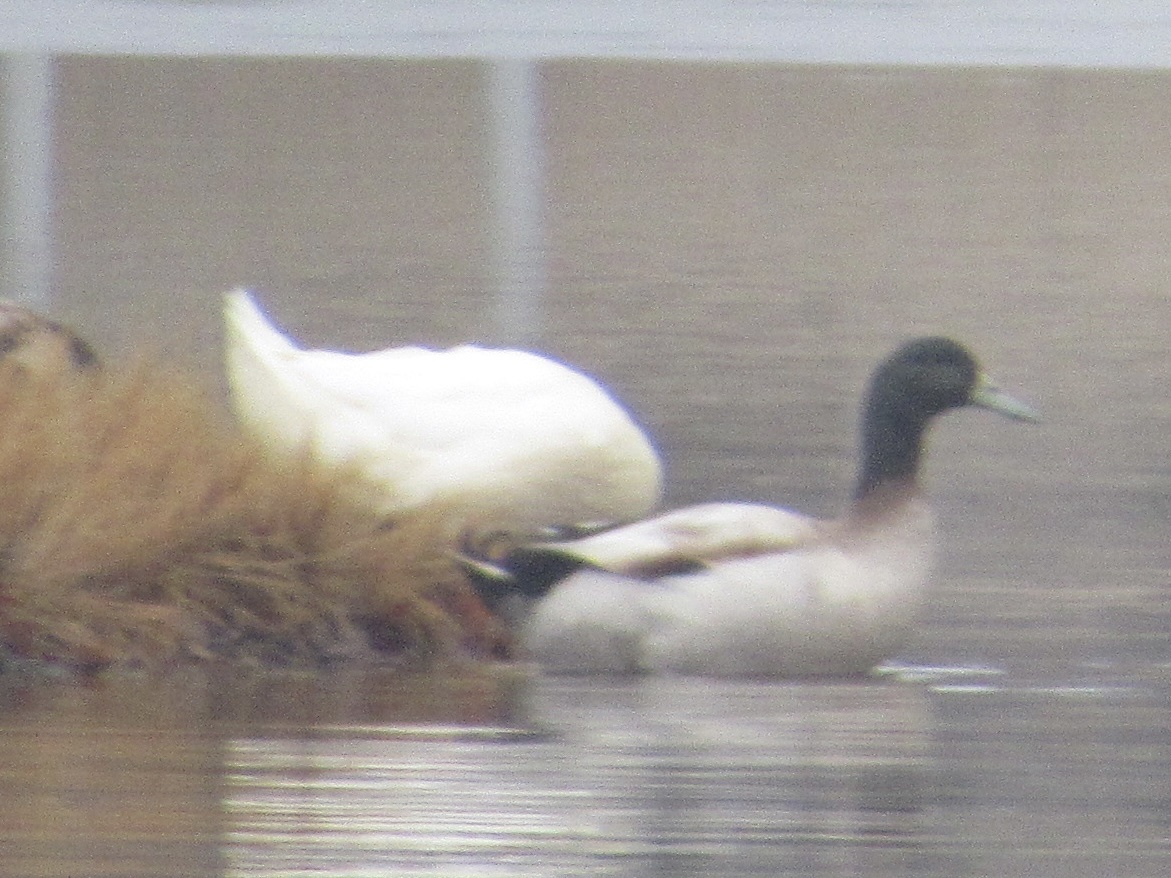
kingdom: Animalia
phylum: Chordata
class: Aves
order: Anseriformes
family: Anatidae
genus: Anas
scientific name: Anas platyrhynchos
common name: Mallard
